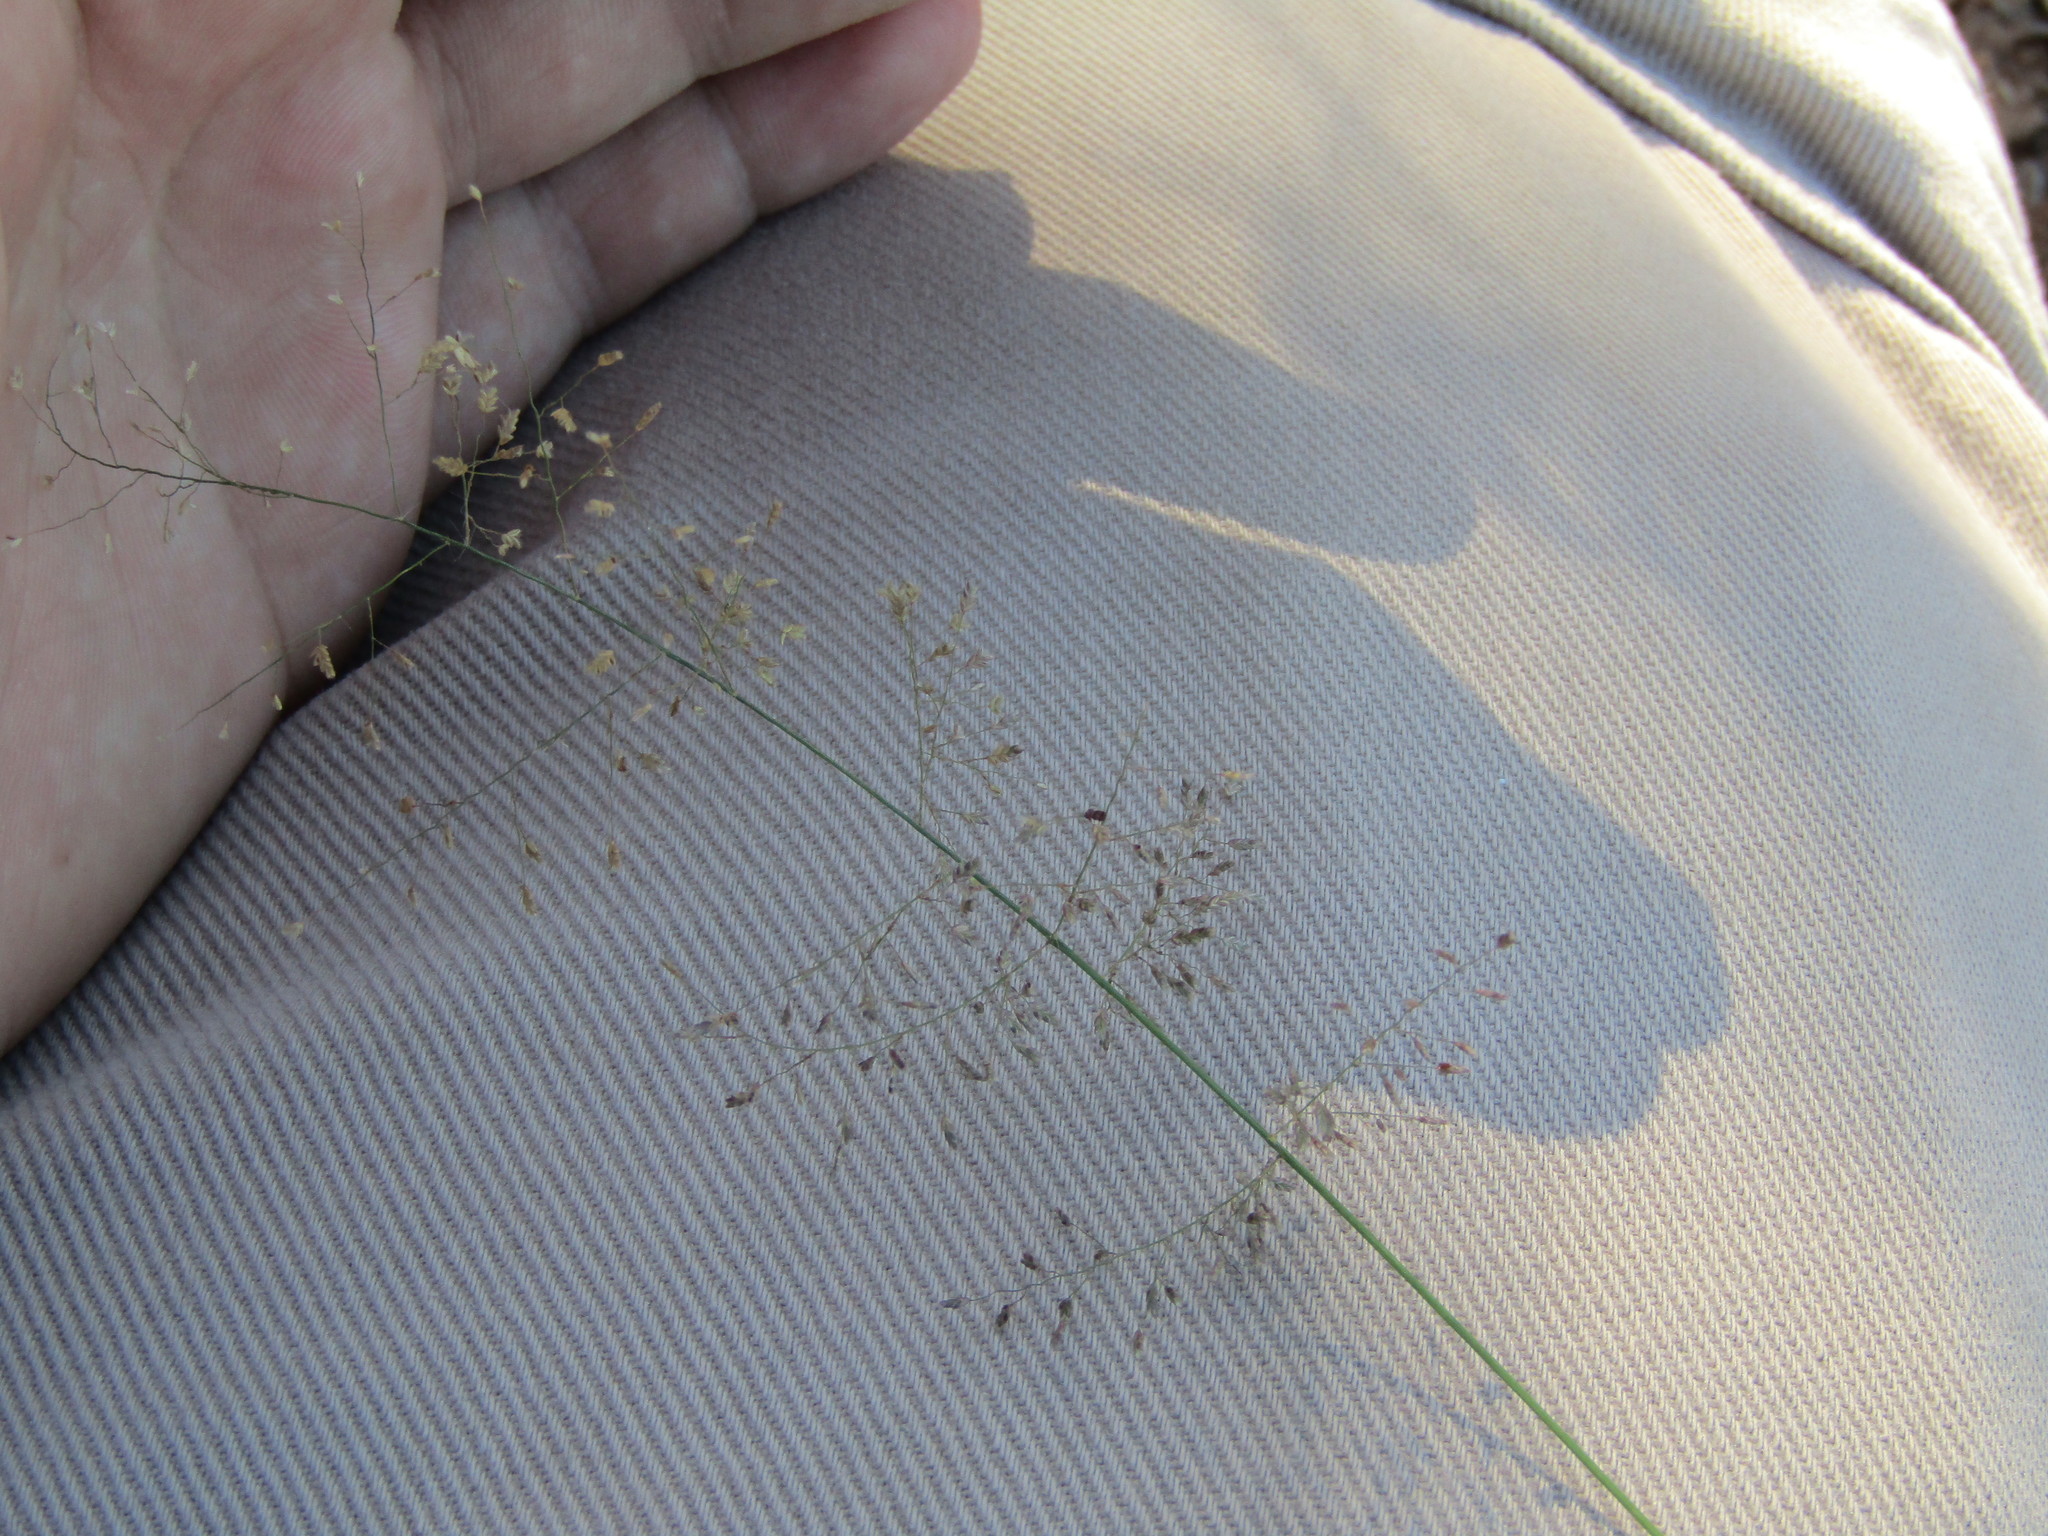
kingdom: Plantae
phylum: Tracheophyta
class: Liliopsida
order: Poales
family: Poaceae
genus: Eragrostis
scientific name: Eragrostis tenella
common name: Japanese lovegrass
